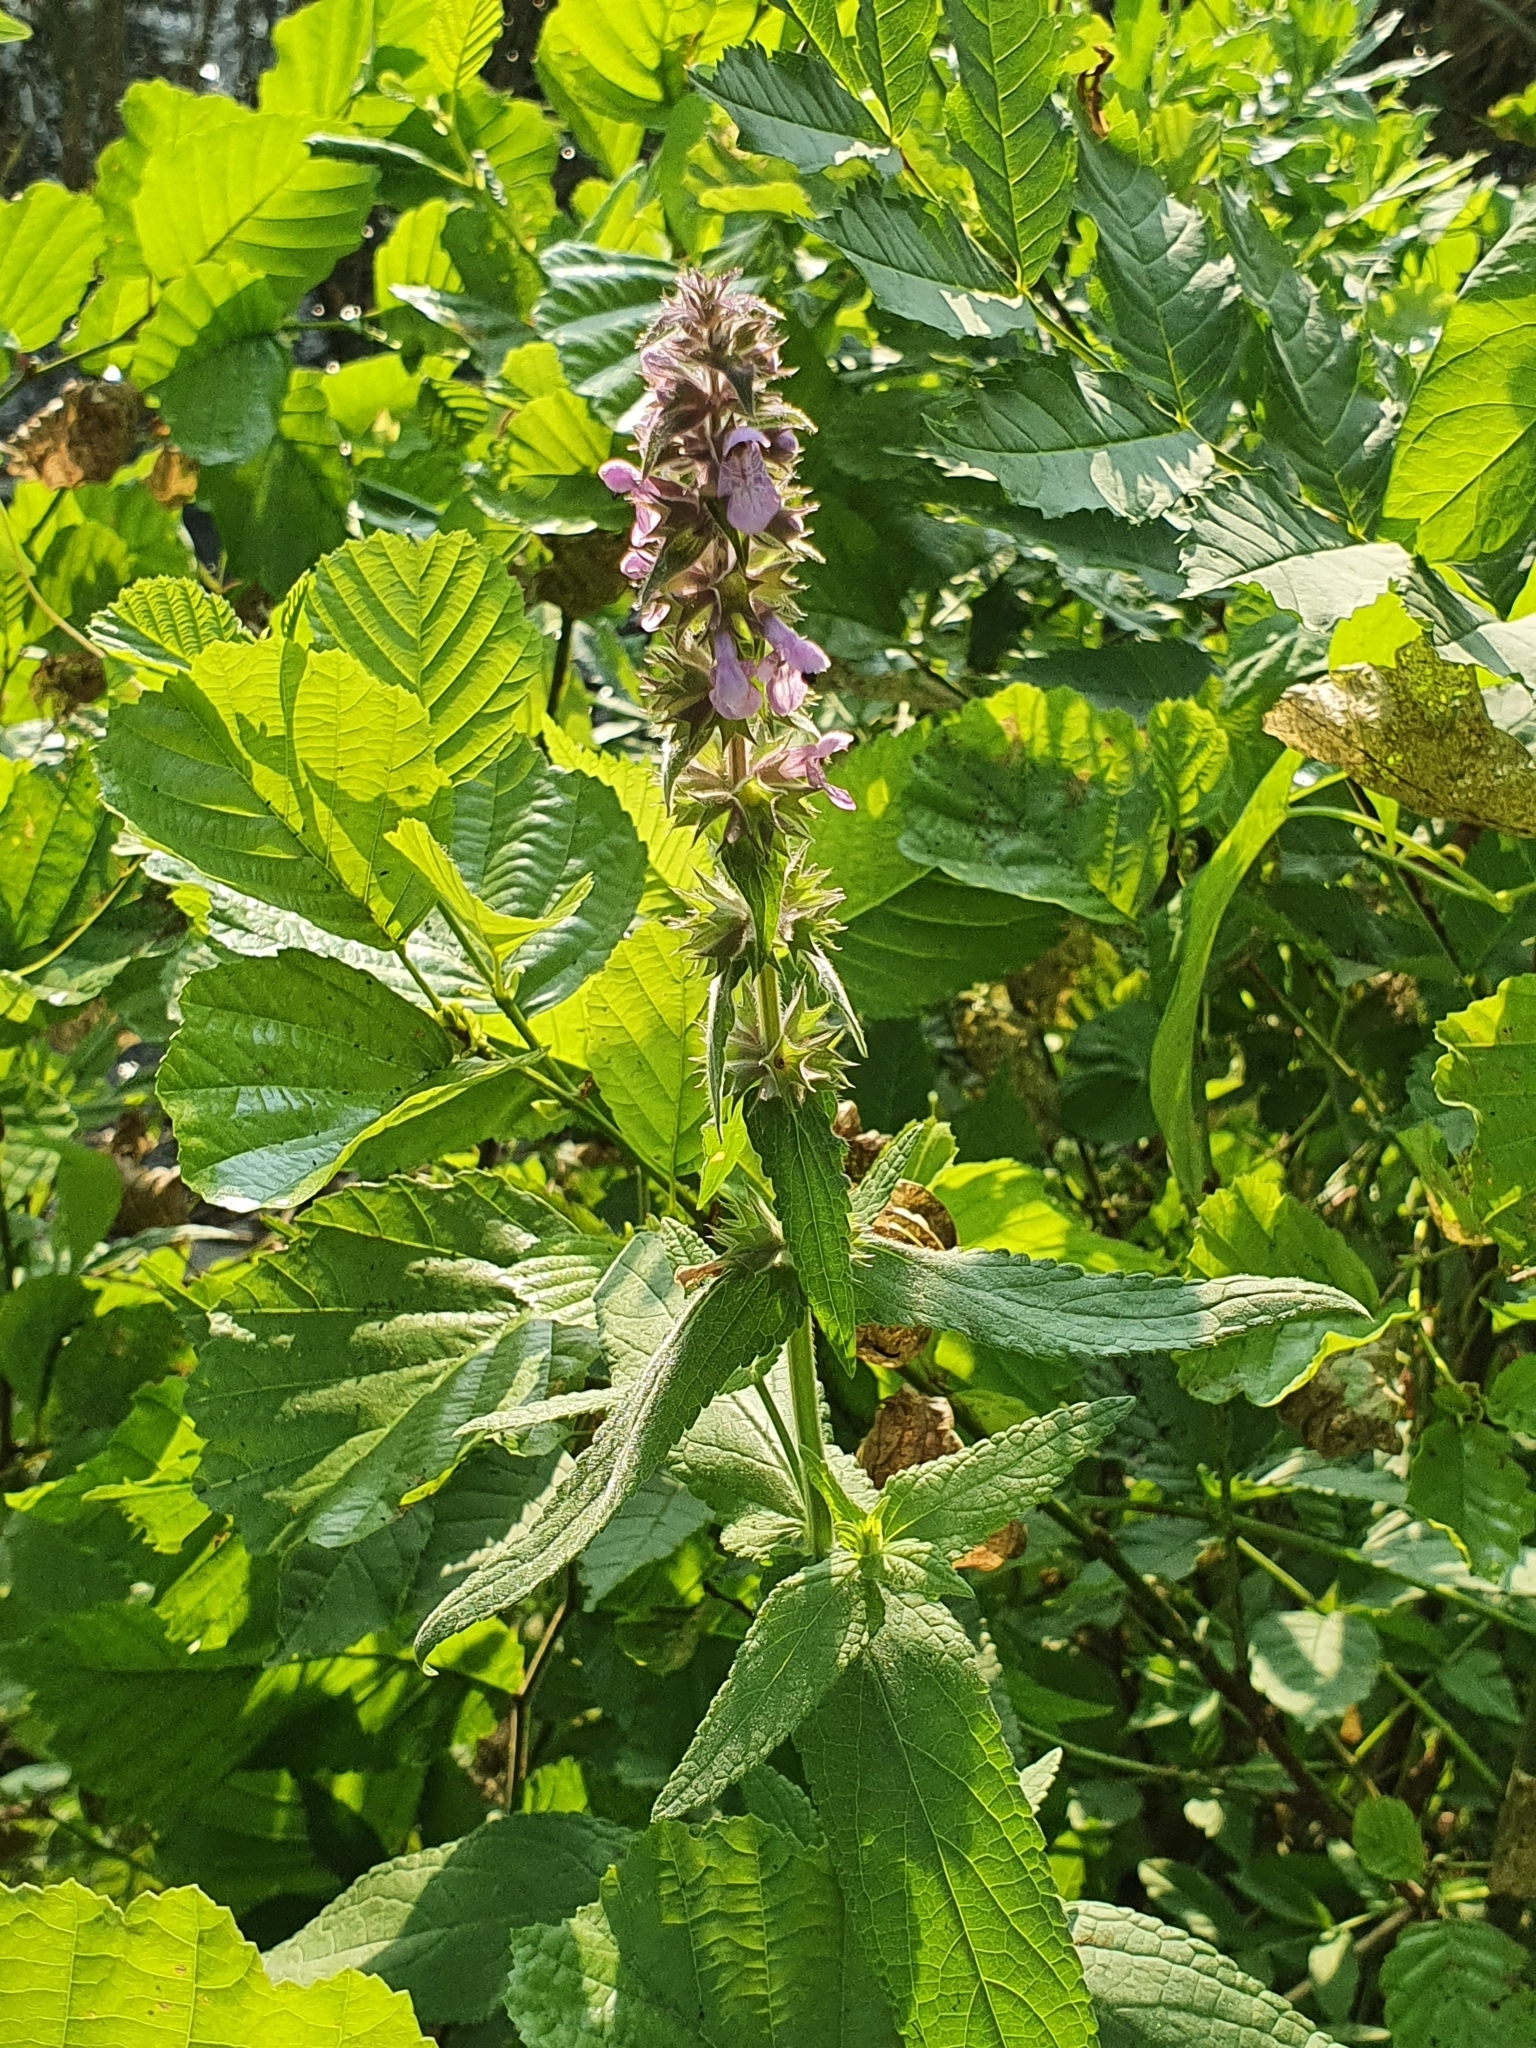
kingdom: Plantae
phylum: Tracheophyta
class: Magnoliopsida
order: Lamiales
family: Lamiaceae
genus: Stachys
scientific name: Stachys palustris
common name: Marsh woundwort
